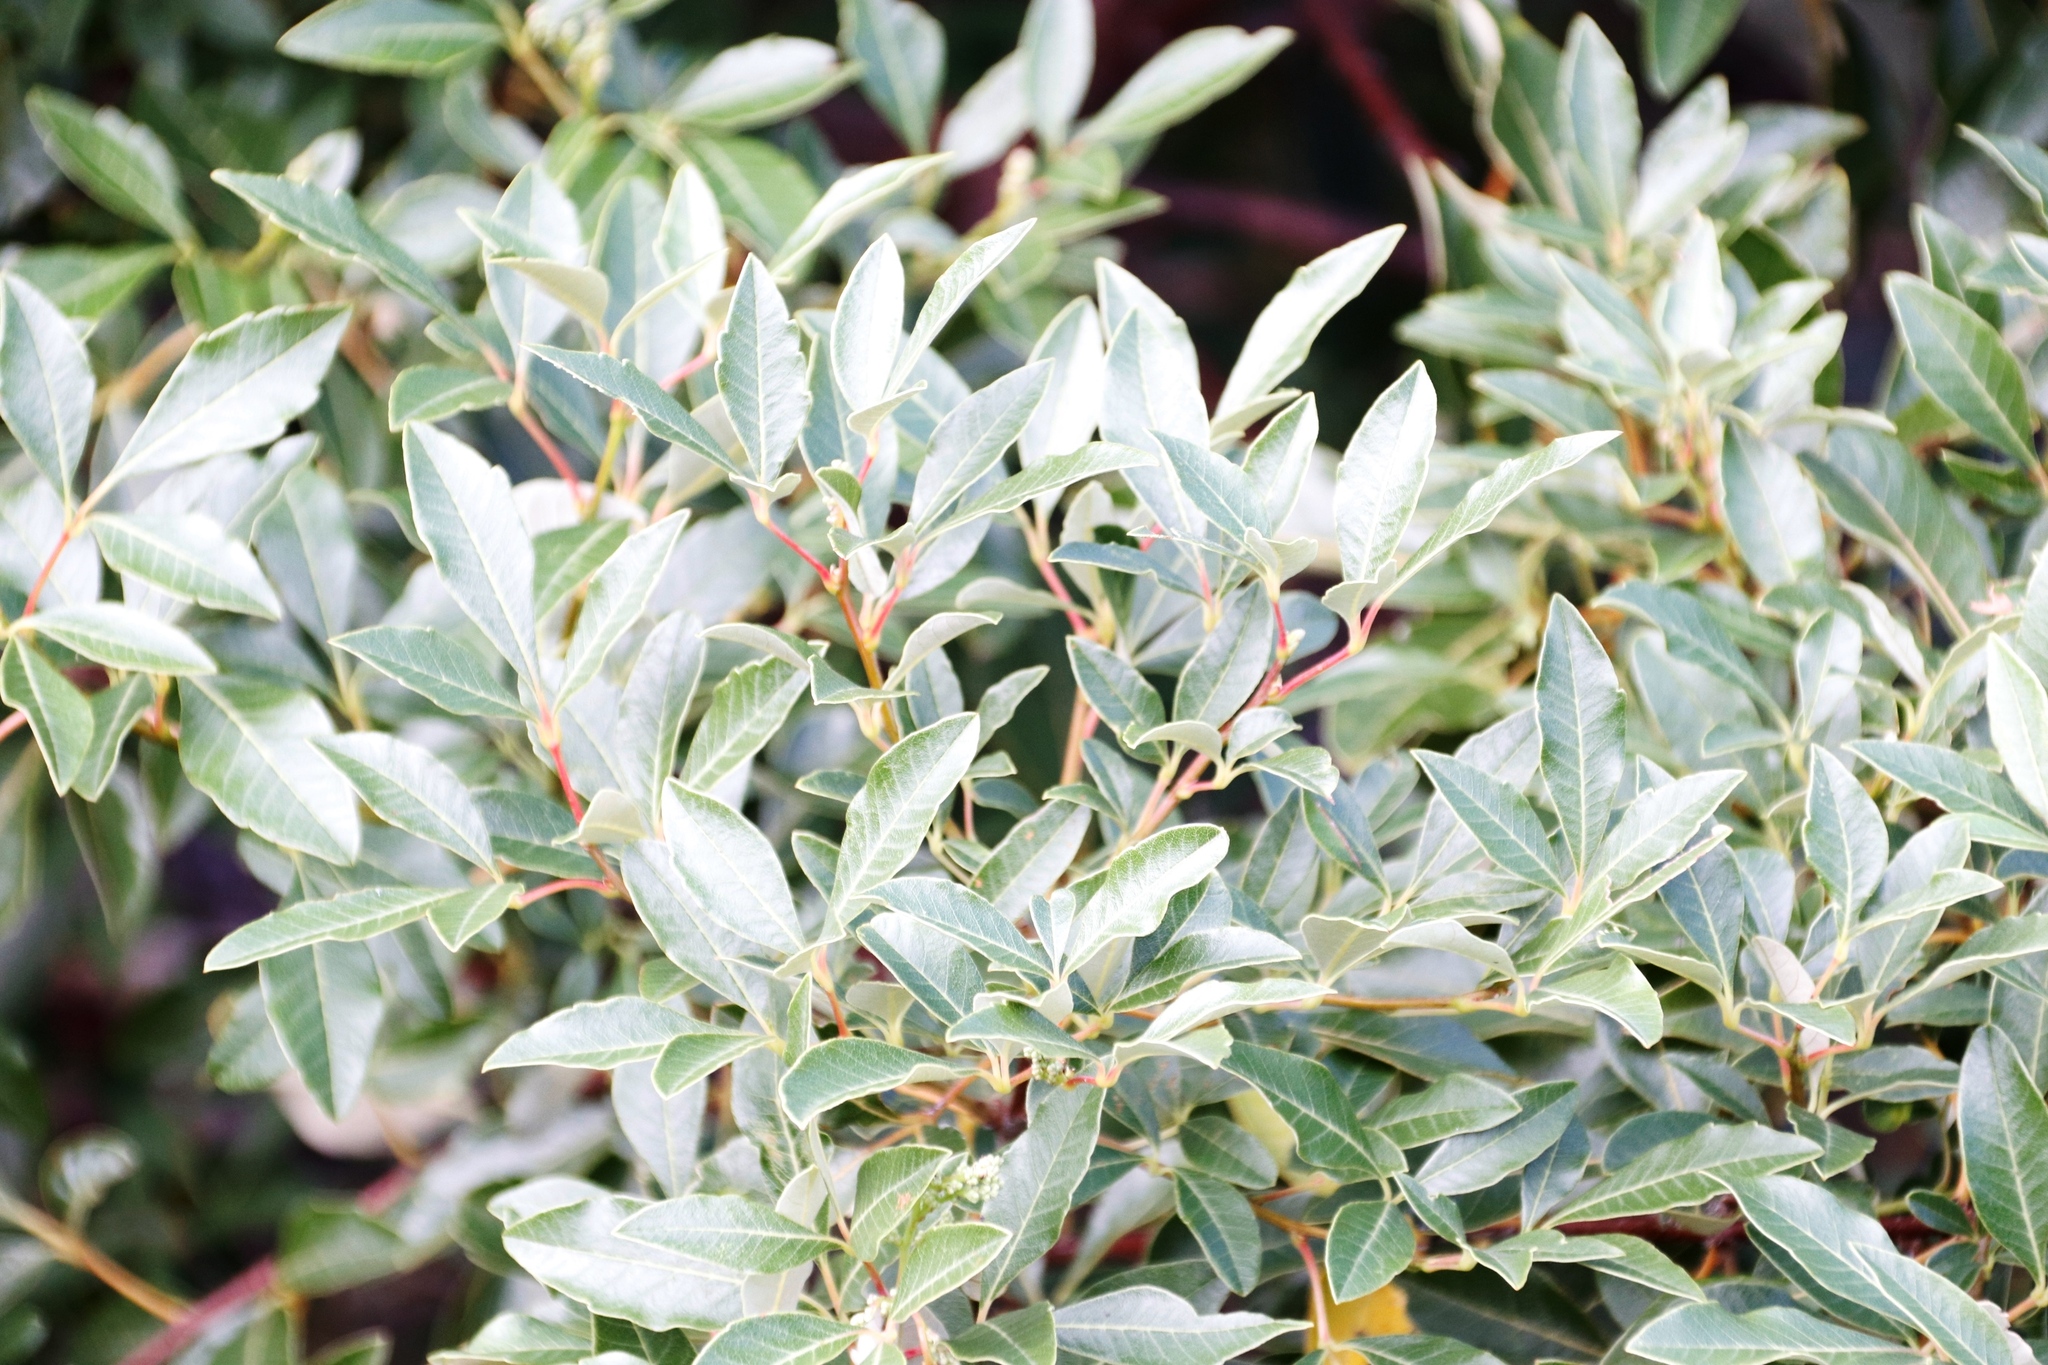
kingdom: Plantae
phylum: Tracheophyta
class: Magnoliopsida
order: Sapindales
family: Anacardiaceae
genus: Searsia
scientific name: Searsia tomentosa
